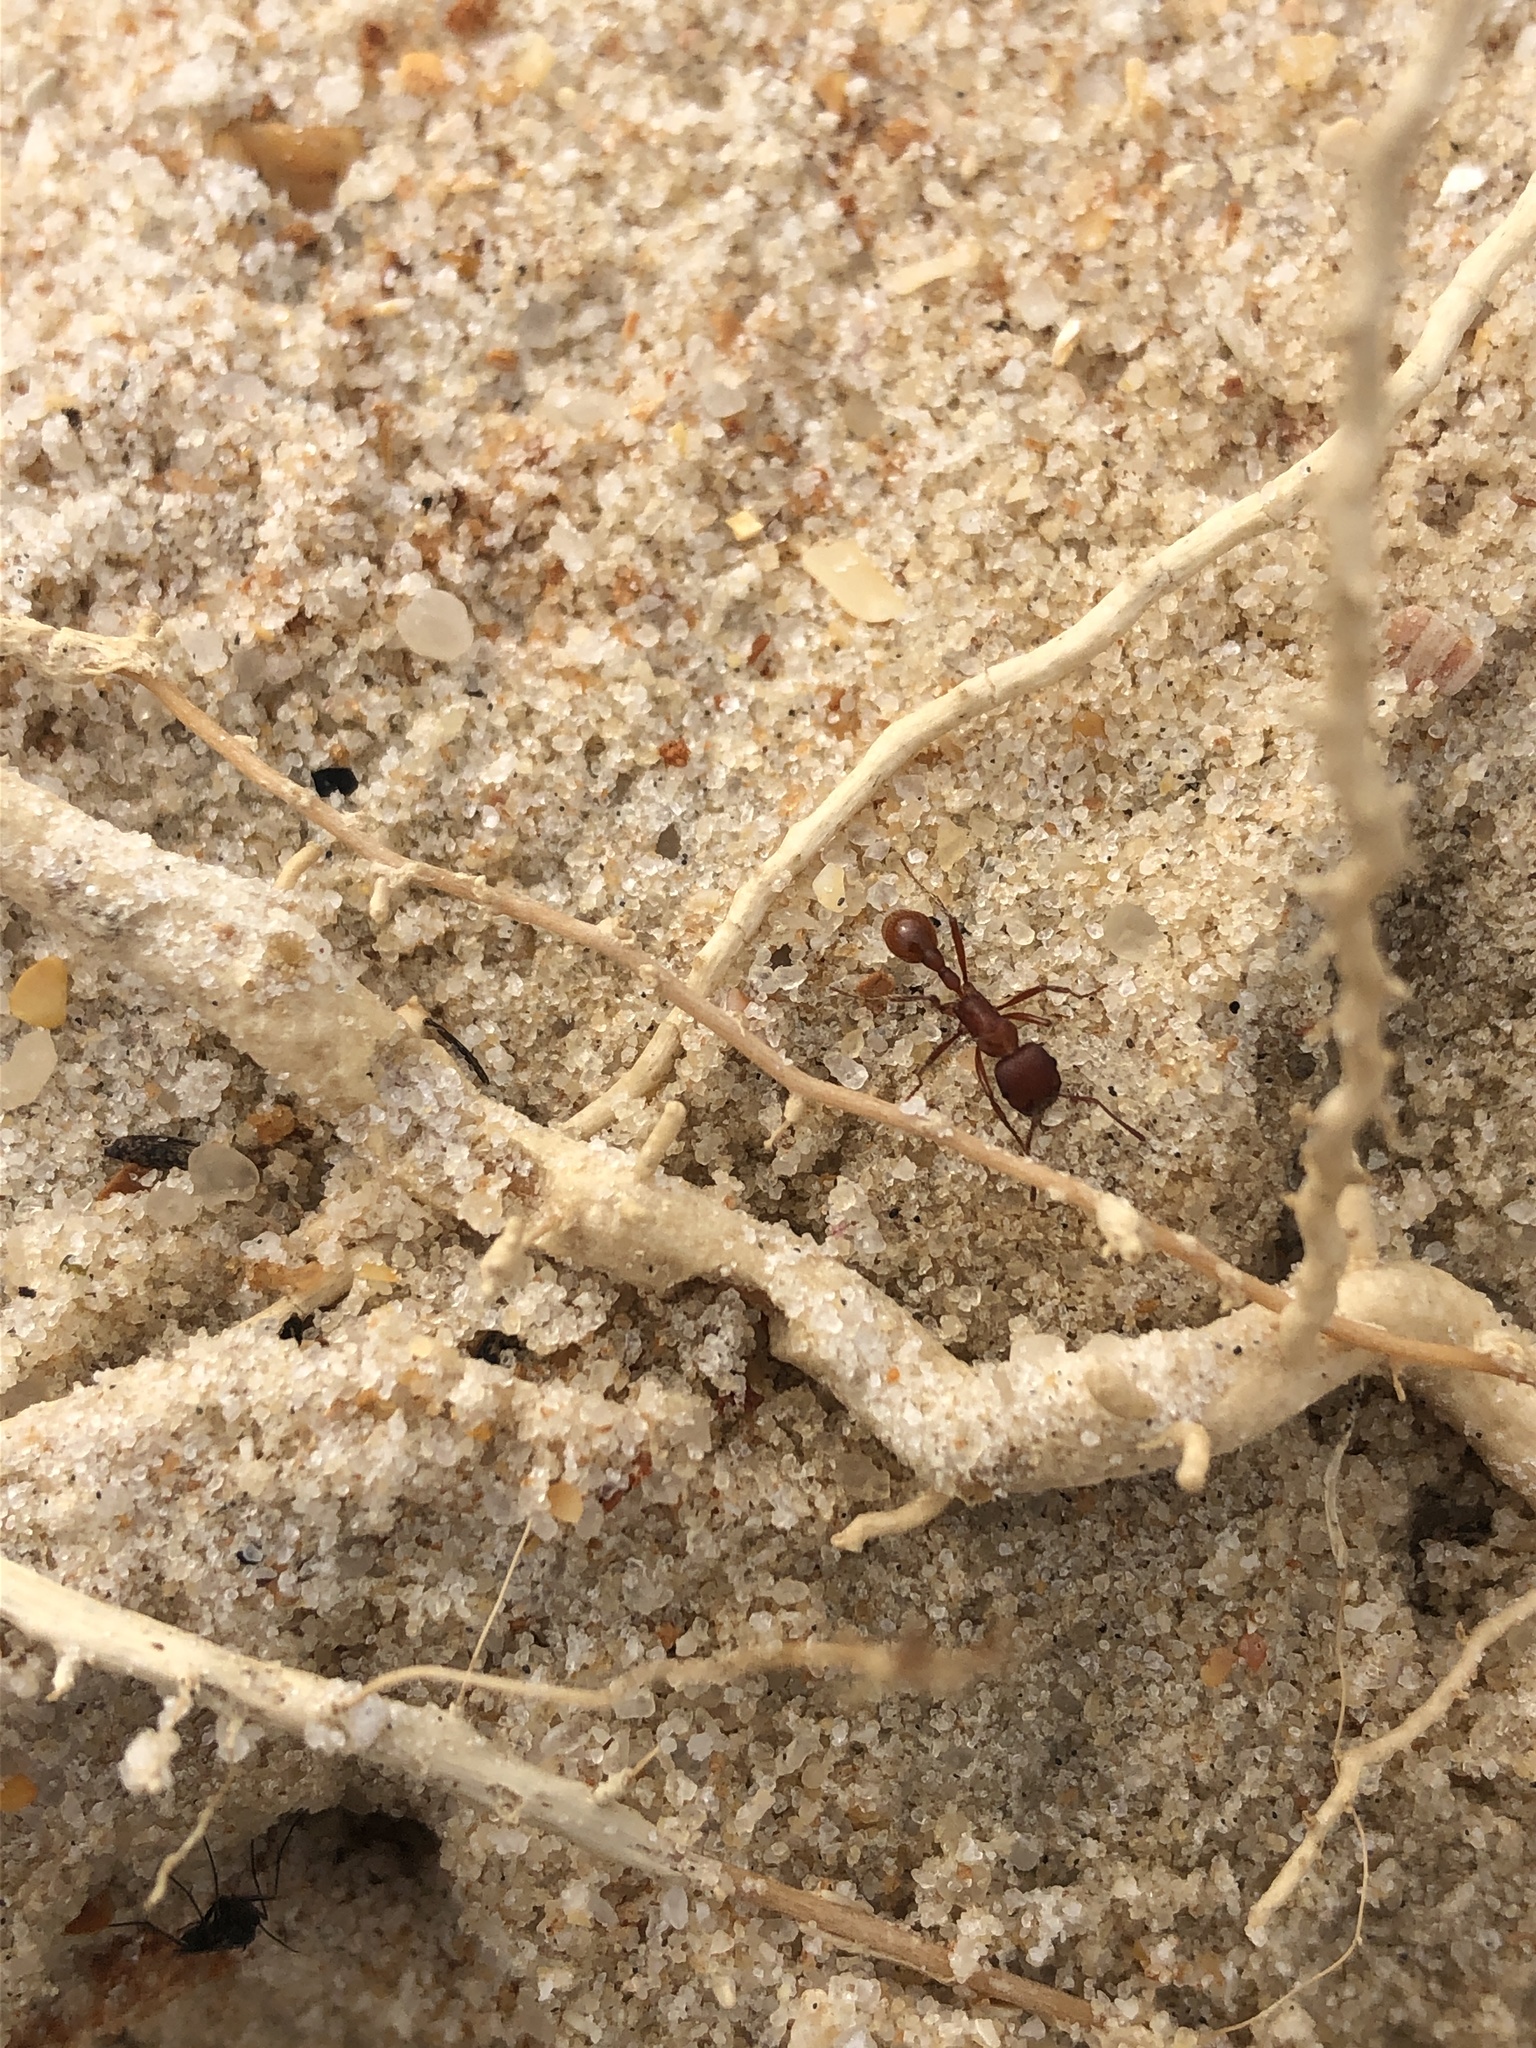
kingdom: Animalia
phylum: Arthropoda
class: Insecta
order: Hymenoptera
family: Formicidae
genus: Pogonomyrmex
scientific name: Pogonomyrmex badius
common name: Florida harvester ant
